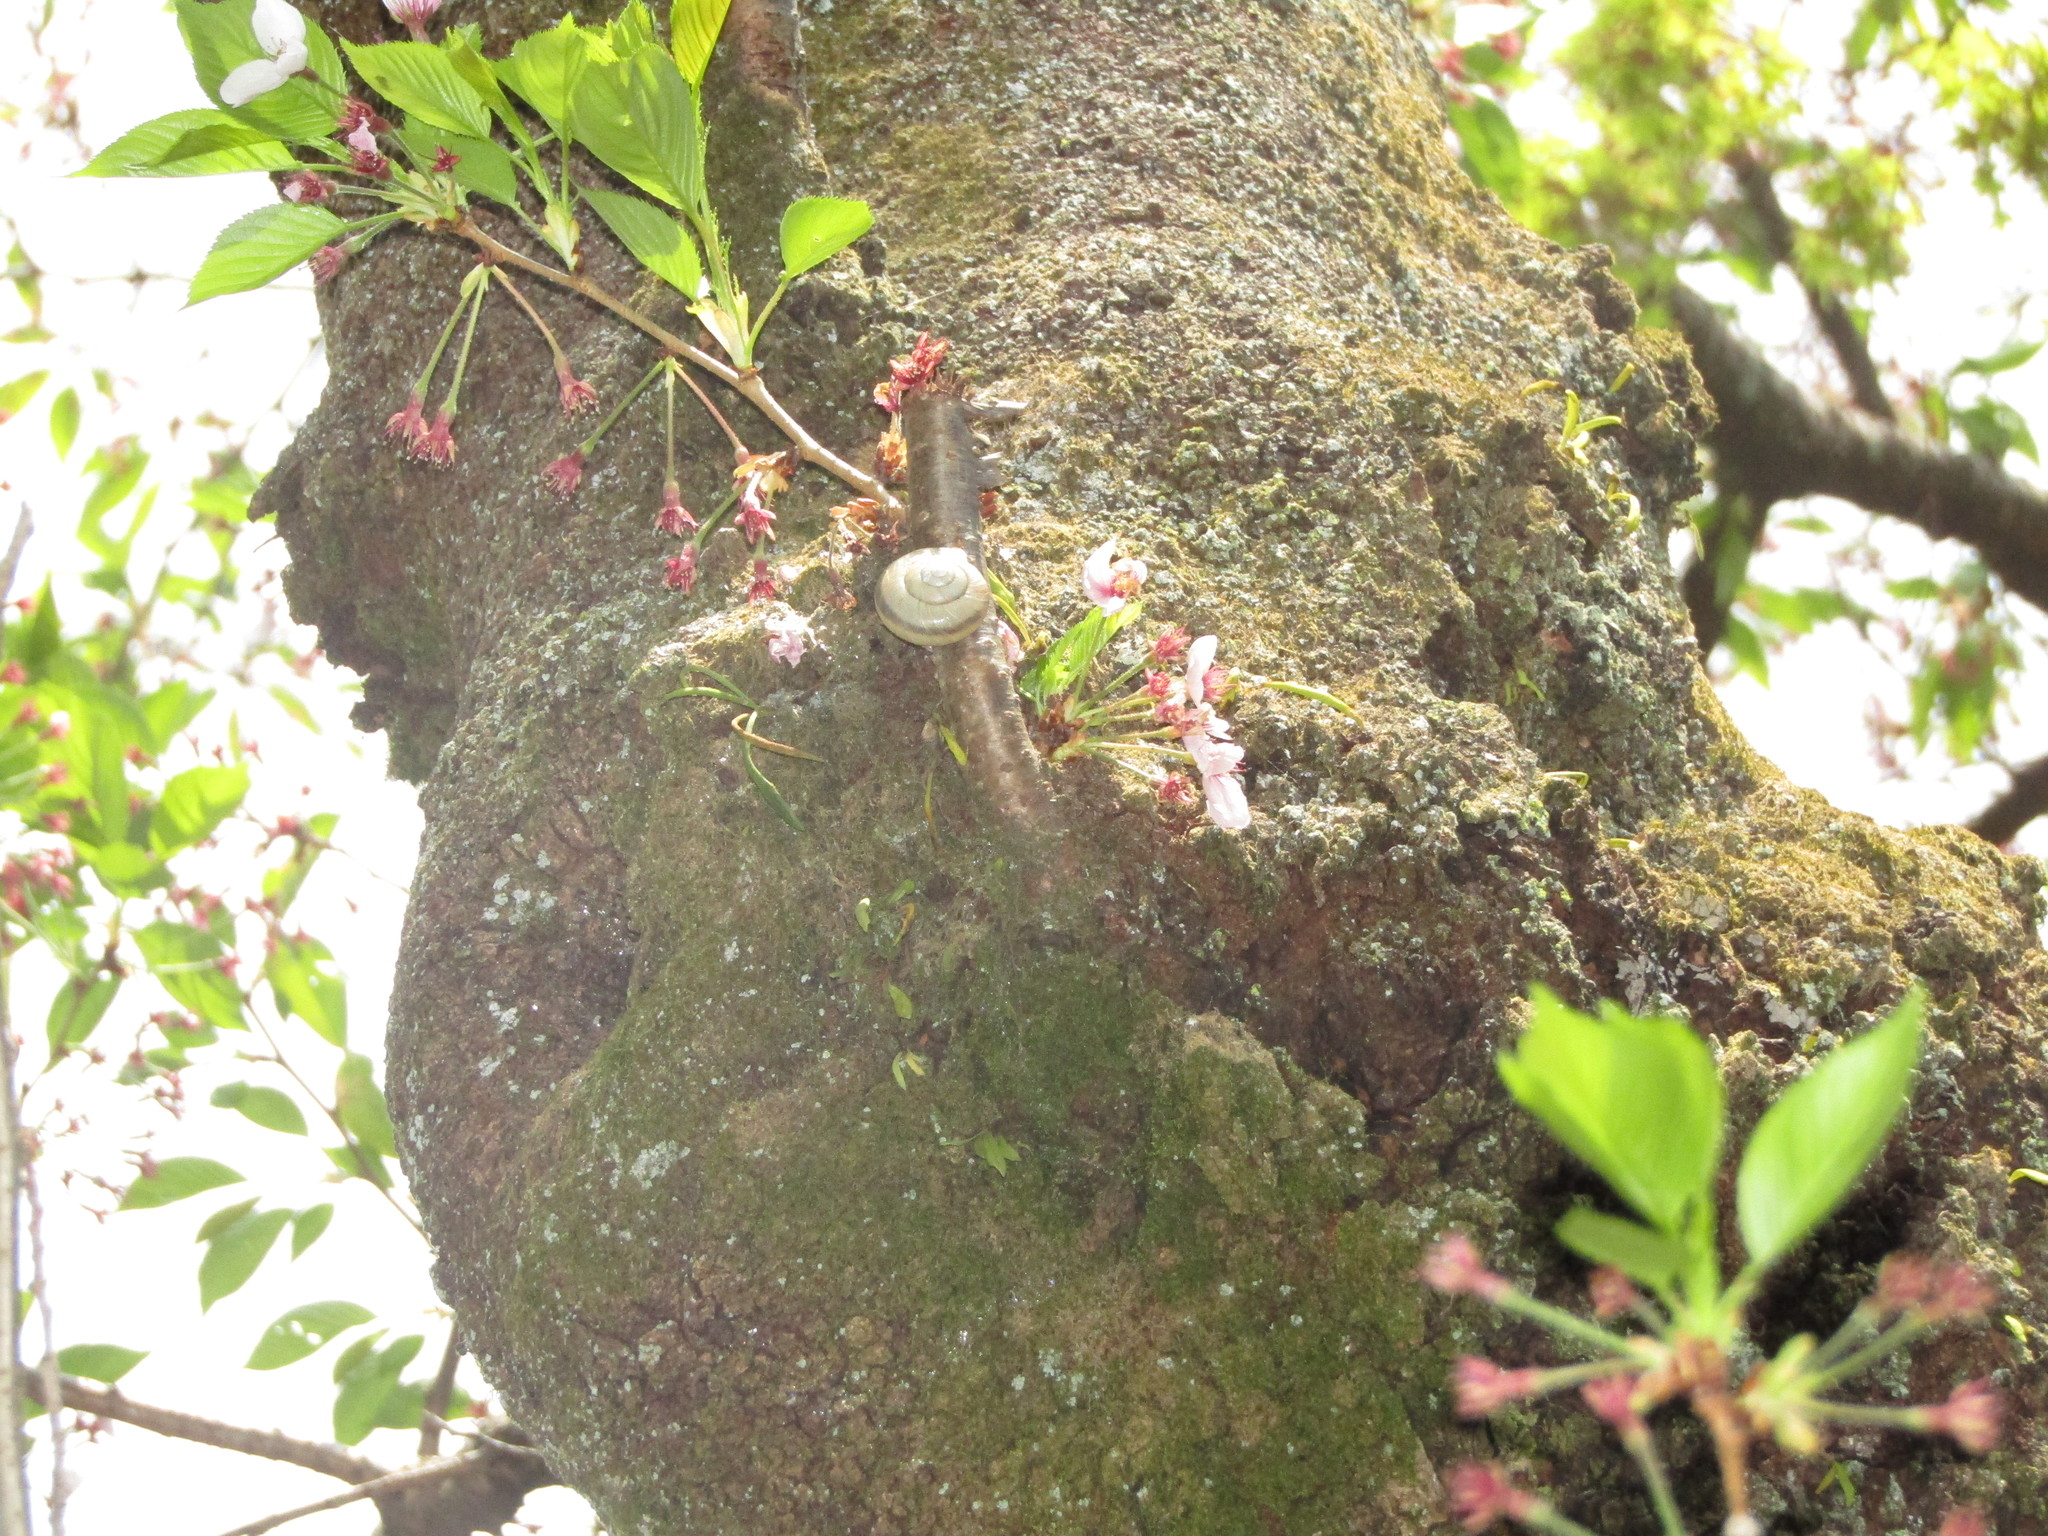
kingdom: Animalia
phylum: Mollusca
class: Gastropoda
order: Stylommatophora
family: Camaenidae
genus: Euhadra
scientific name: Euhadra amaliae
